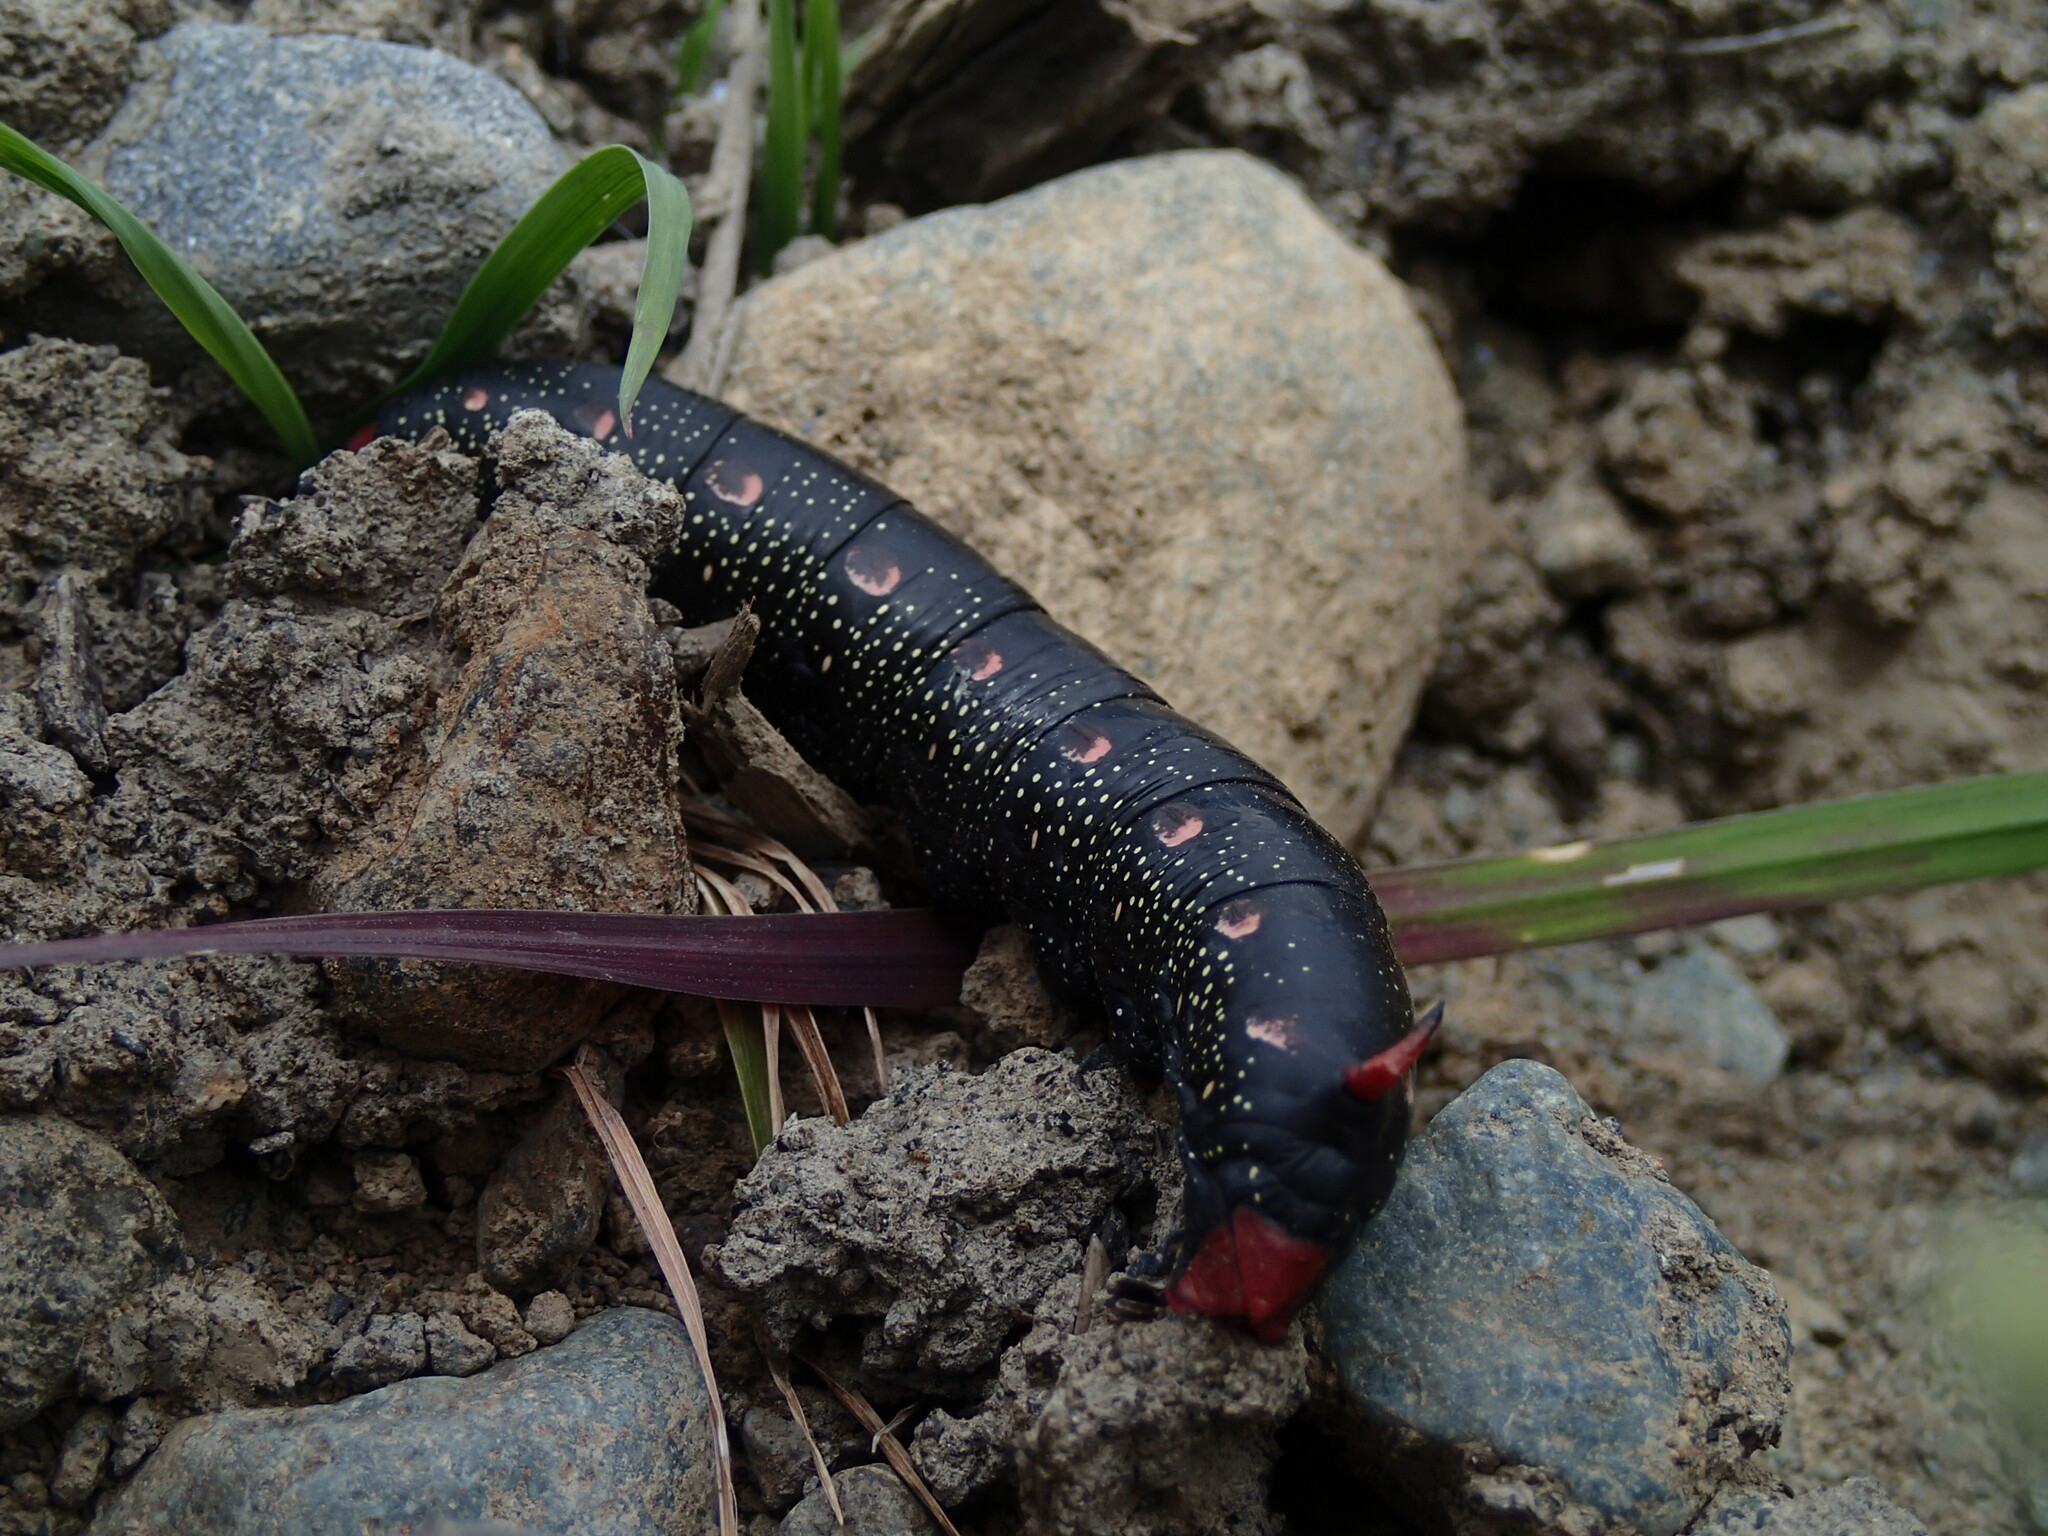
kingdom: Animalia
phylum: Arthropoda
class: Insecta
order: Lepidoptera
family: Sphingidae
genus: Hyles
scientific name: Hyles gallii
